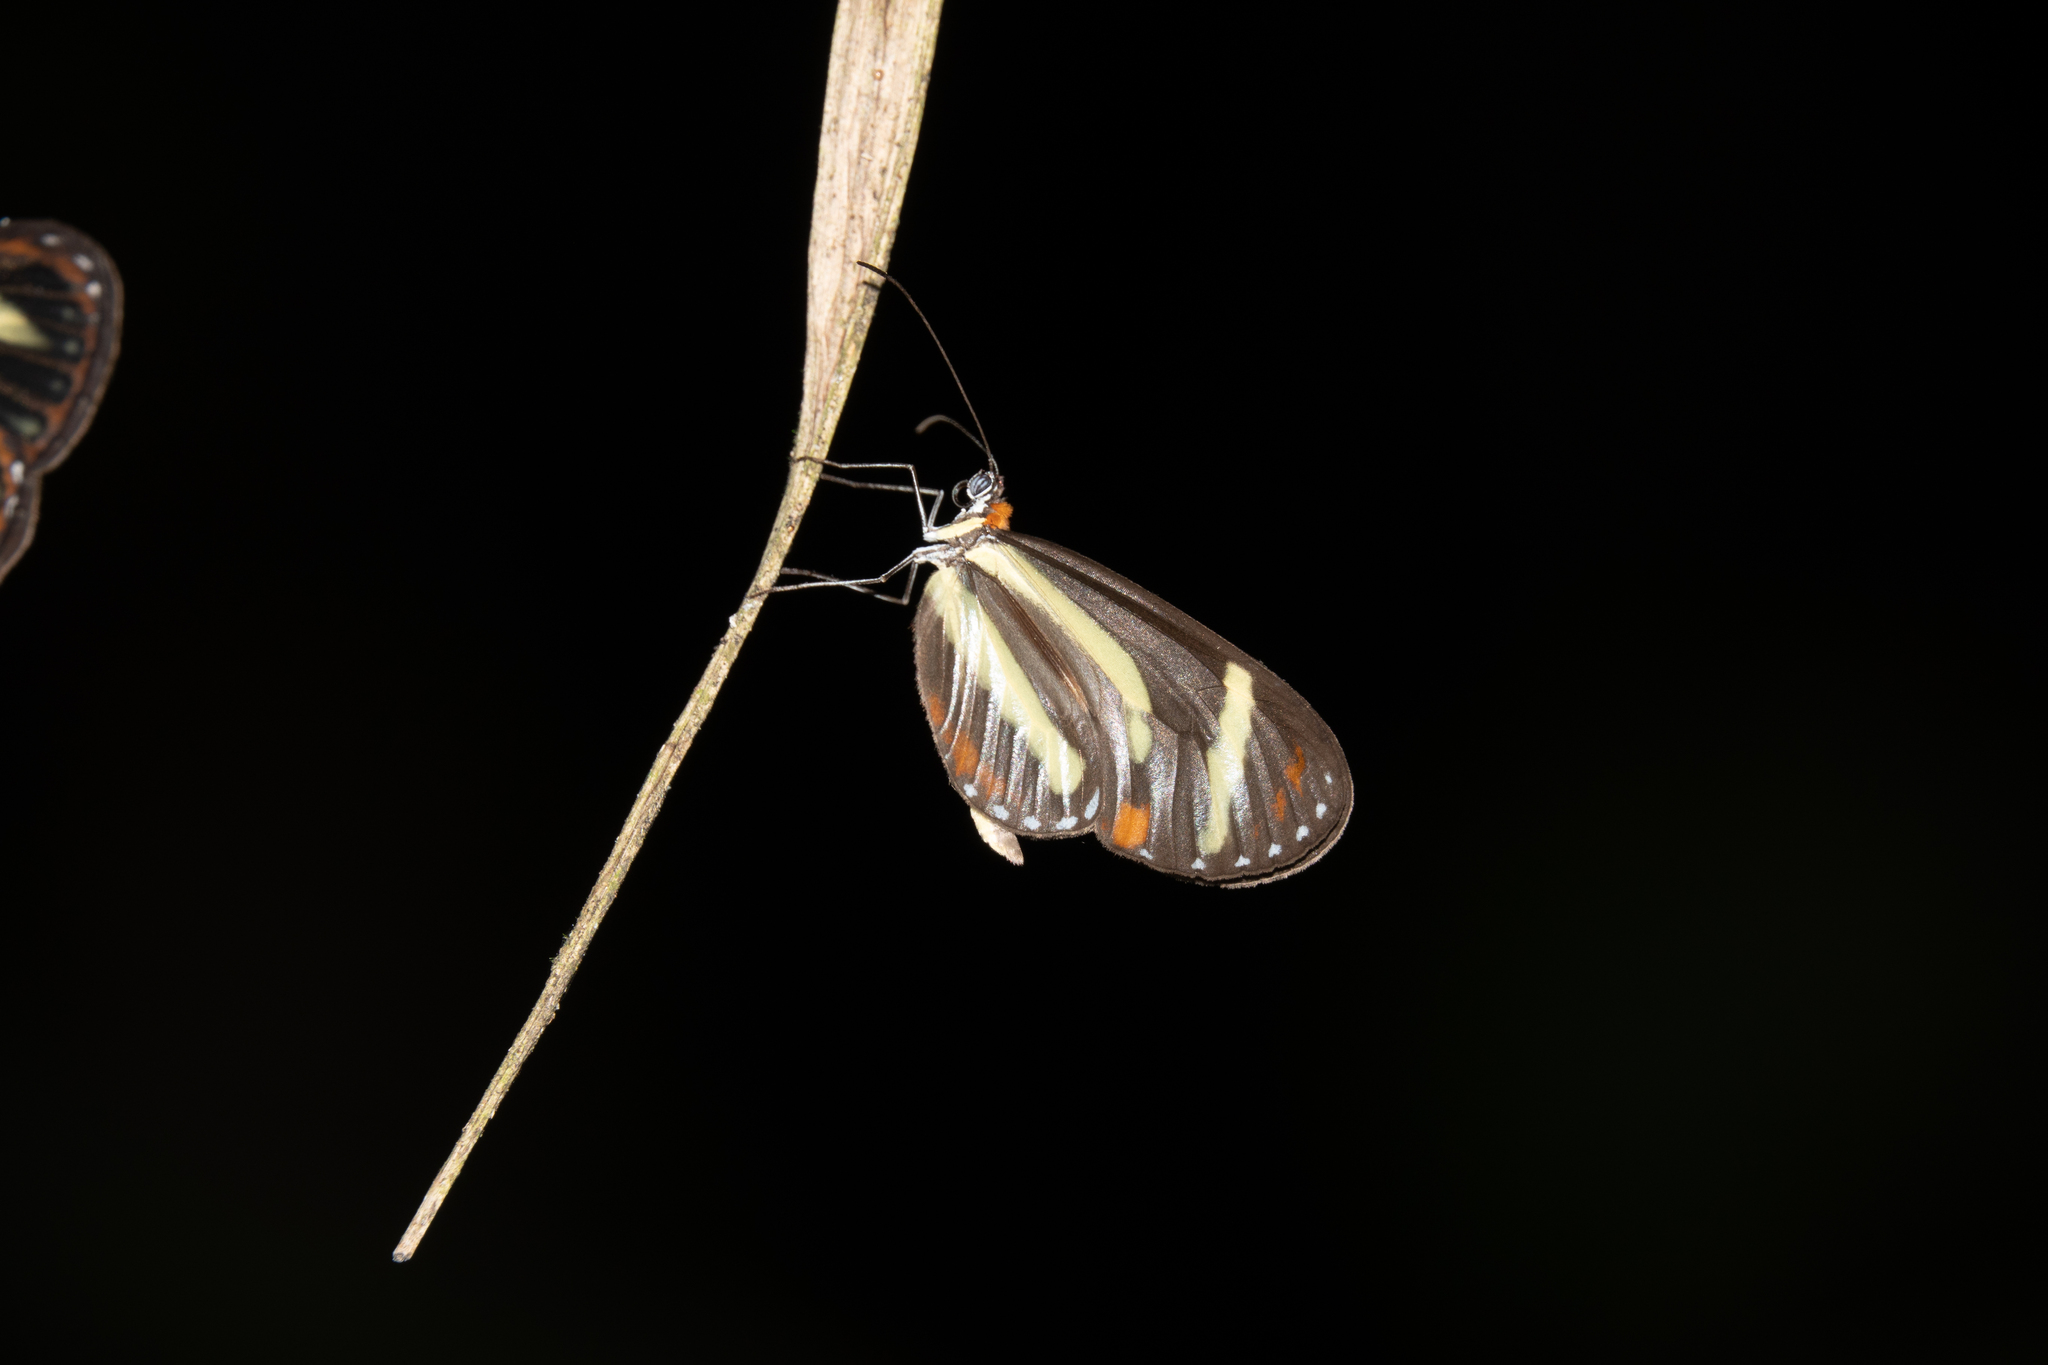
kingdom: Animalia
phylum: Arthropoda
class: Insecta
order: Lepidoptera
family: Nymphalidae
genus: Scada
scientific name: Scada
